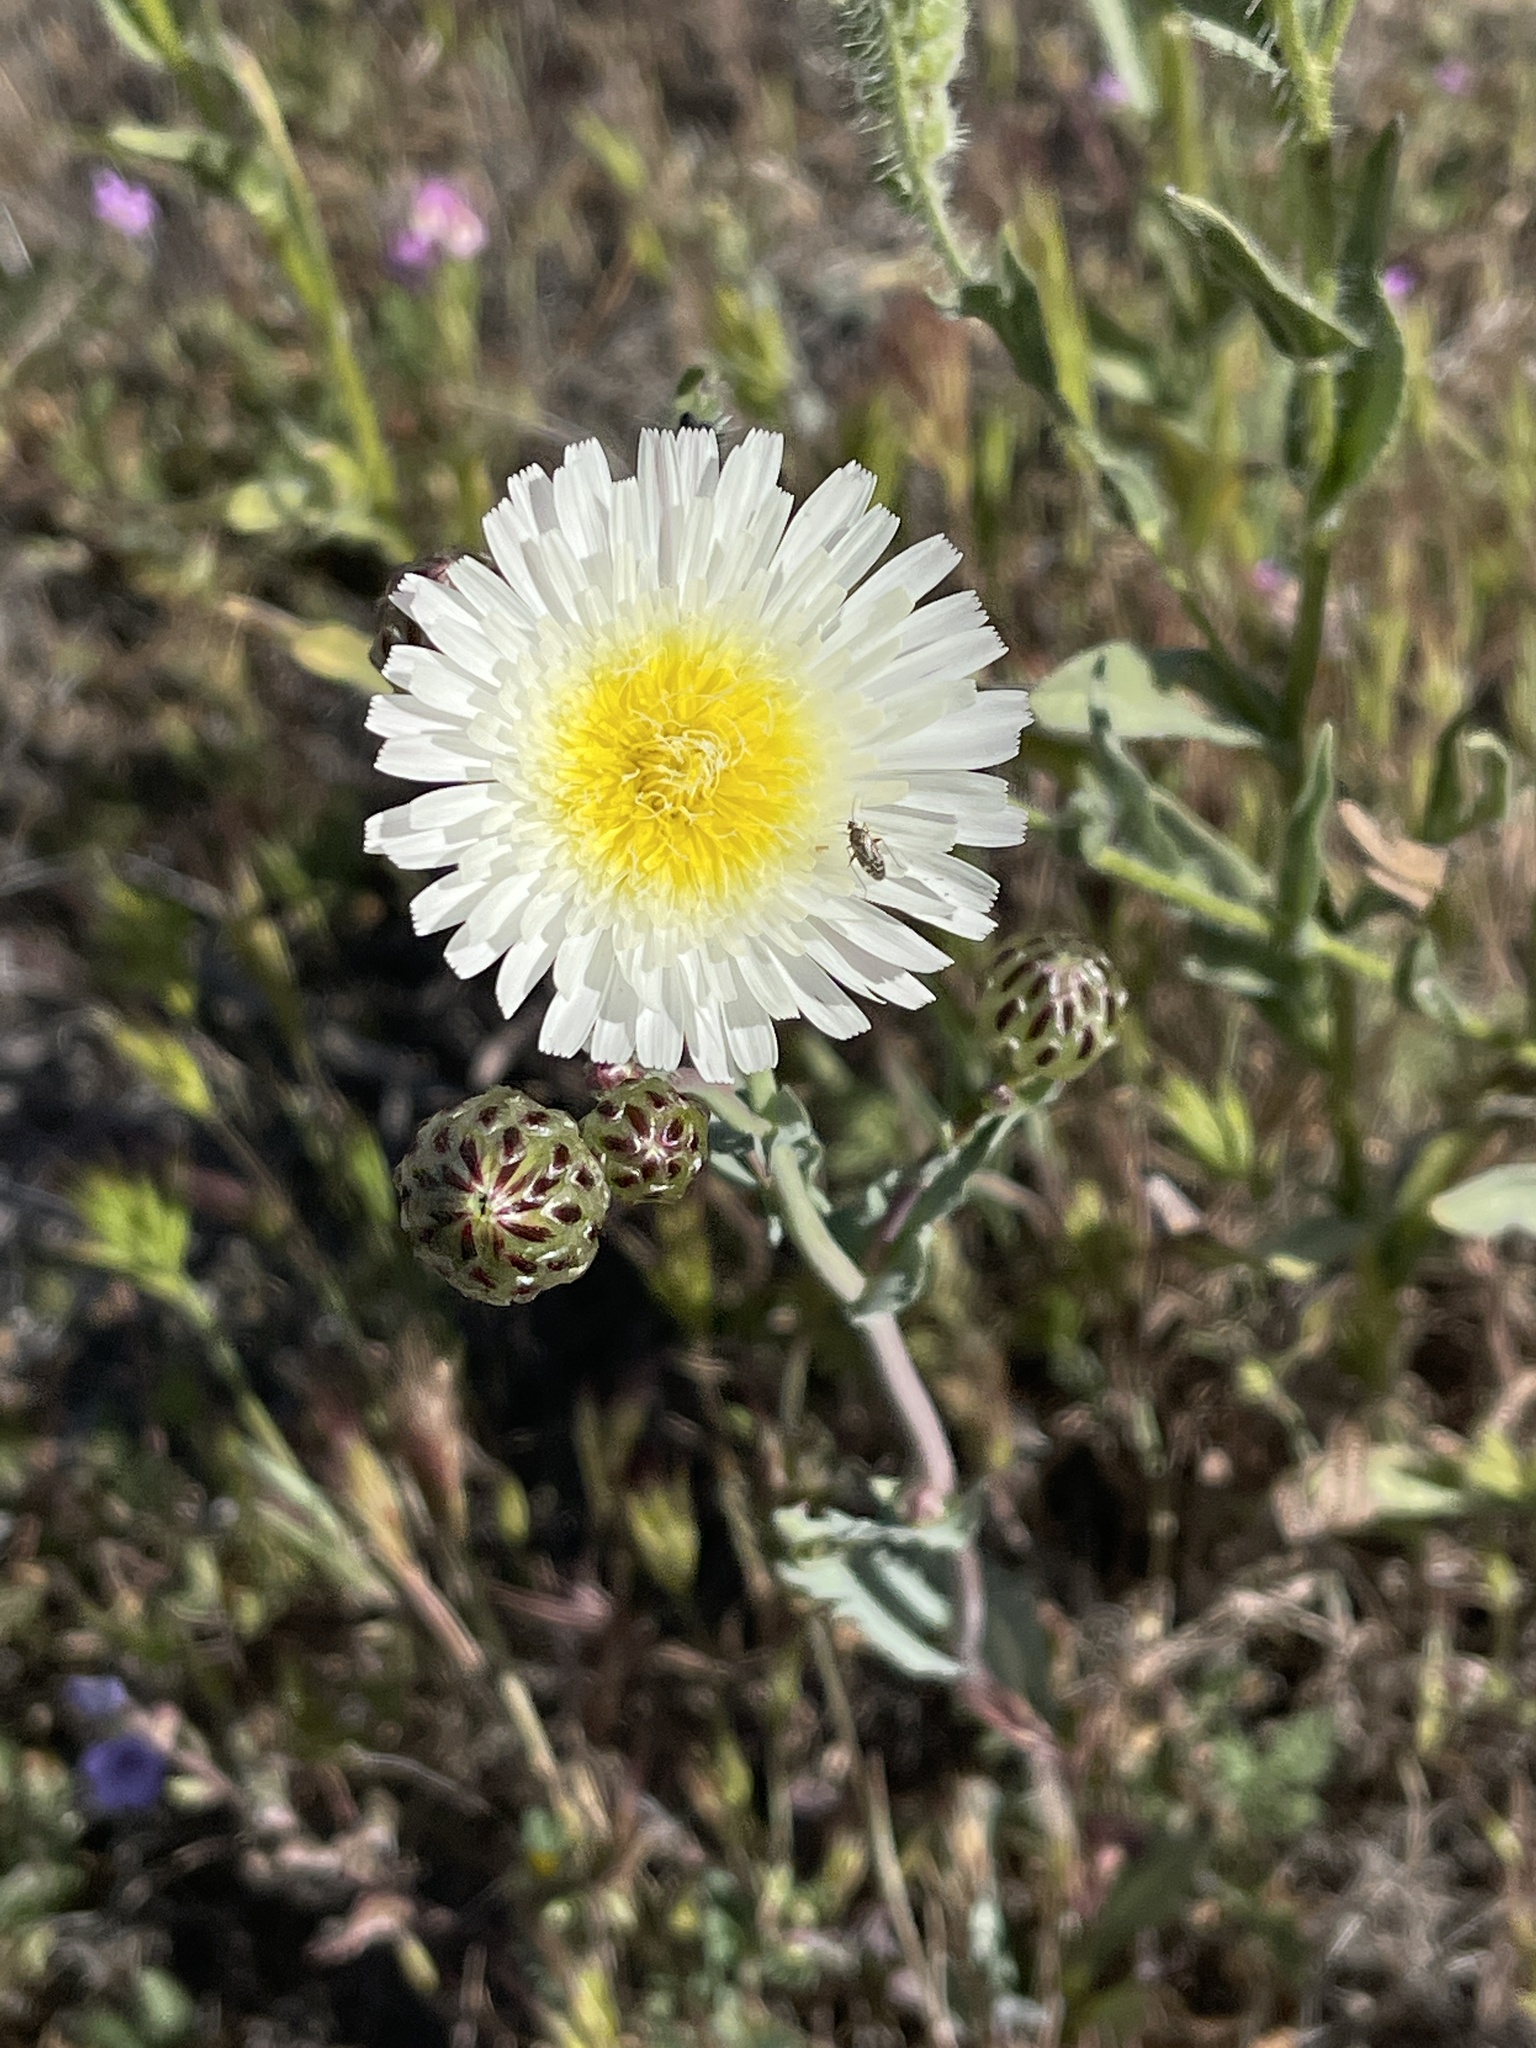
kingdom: Plantae
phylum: Tracheophyta
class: Magnoliopsida
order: Asterales
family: Asteraceae
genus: Malacothrix
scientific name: Malacothrix coulteri
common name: Snake's-head
